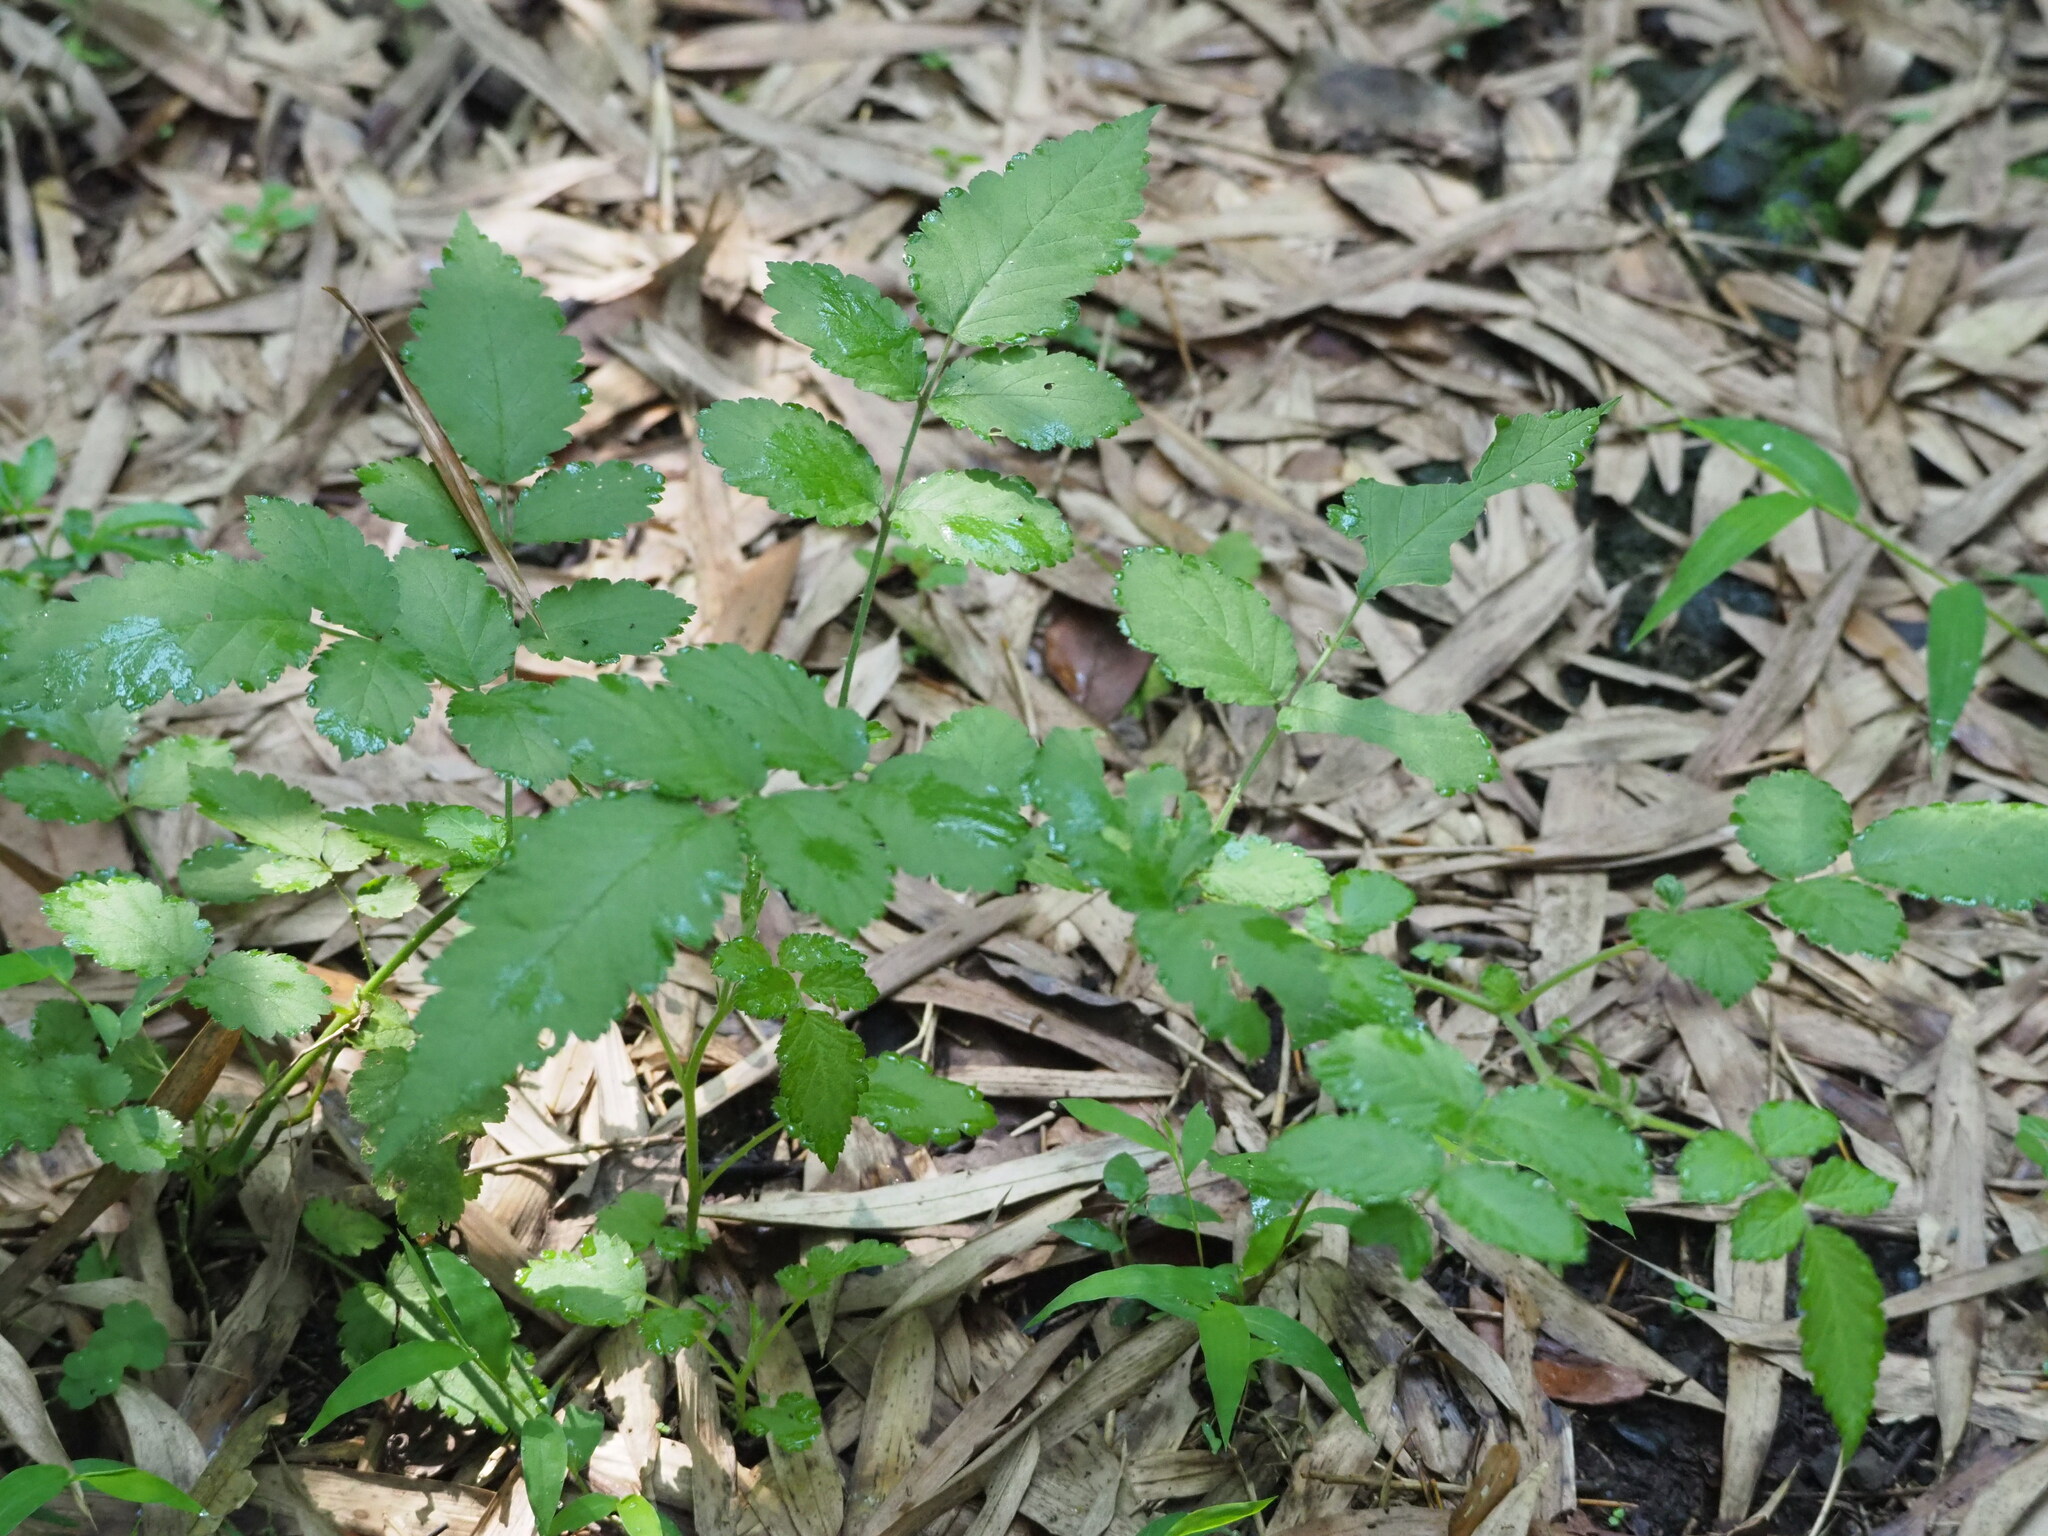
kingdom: Plantae
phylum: Tracheophyta
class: Magnoliopsida
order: Rosales
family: Rosaceae
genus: Rubus
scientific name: Rubus rosifolius
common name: Roseleaf raspberry
